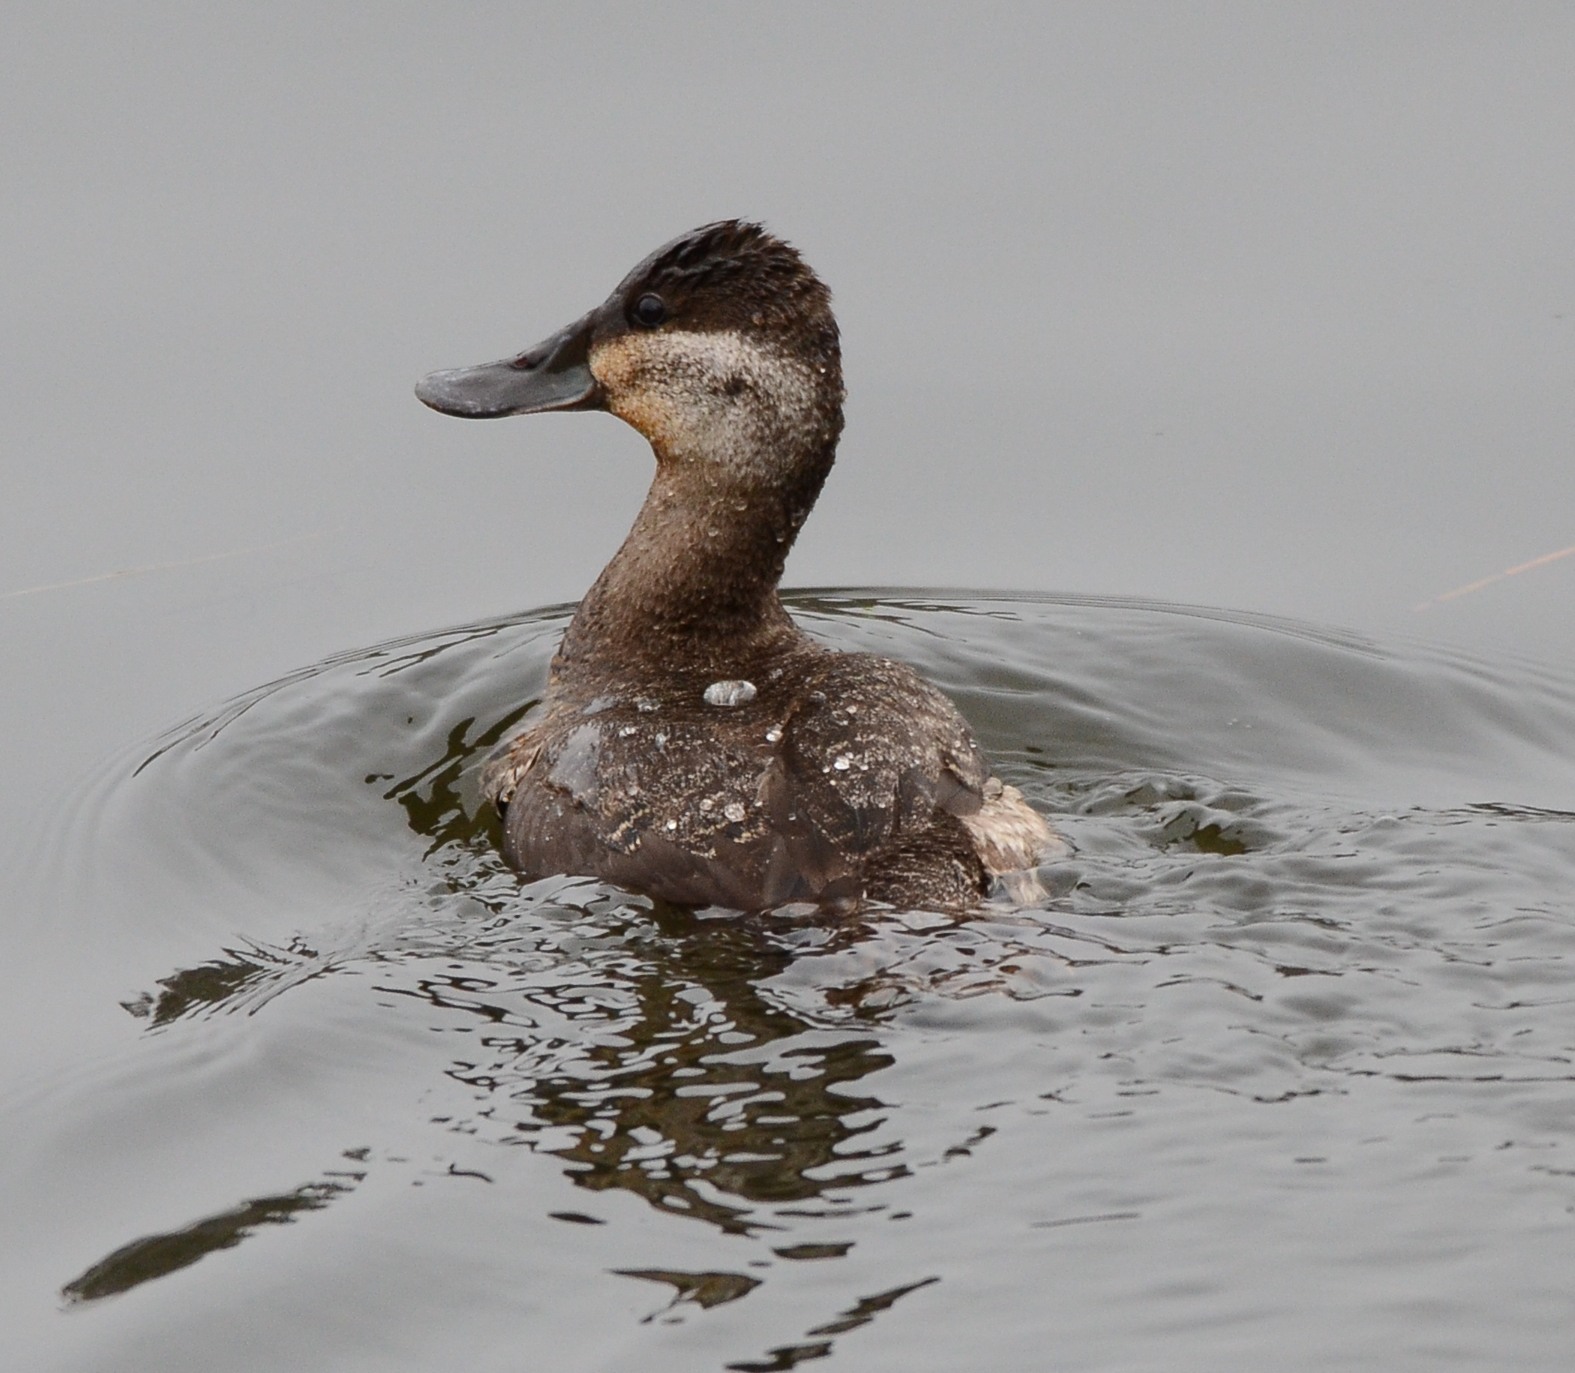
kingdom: Animalia
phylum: Chordata
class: Aves
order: Anseriformes
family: Anatidae
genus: Oxyura
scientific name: Oxyura jamaicensis
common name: Ruddy duck
